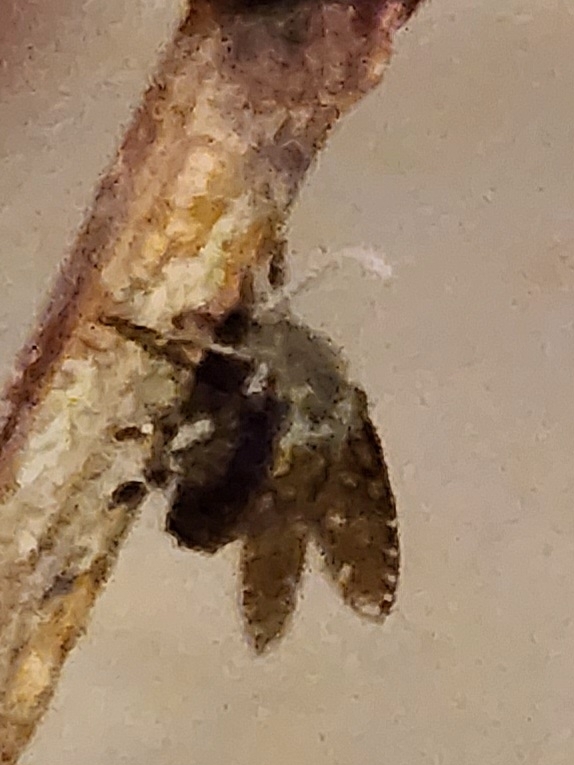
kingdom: Animalia
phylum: Arthropoda
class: Insecta
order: Diptera
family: Psychodidae
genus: Clogmia
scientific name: Clogmia albipunctatus
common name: White-spotted moth fly
